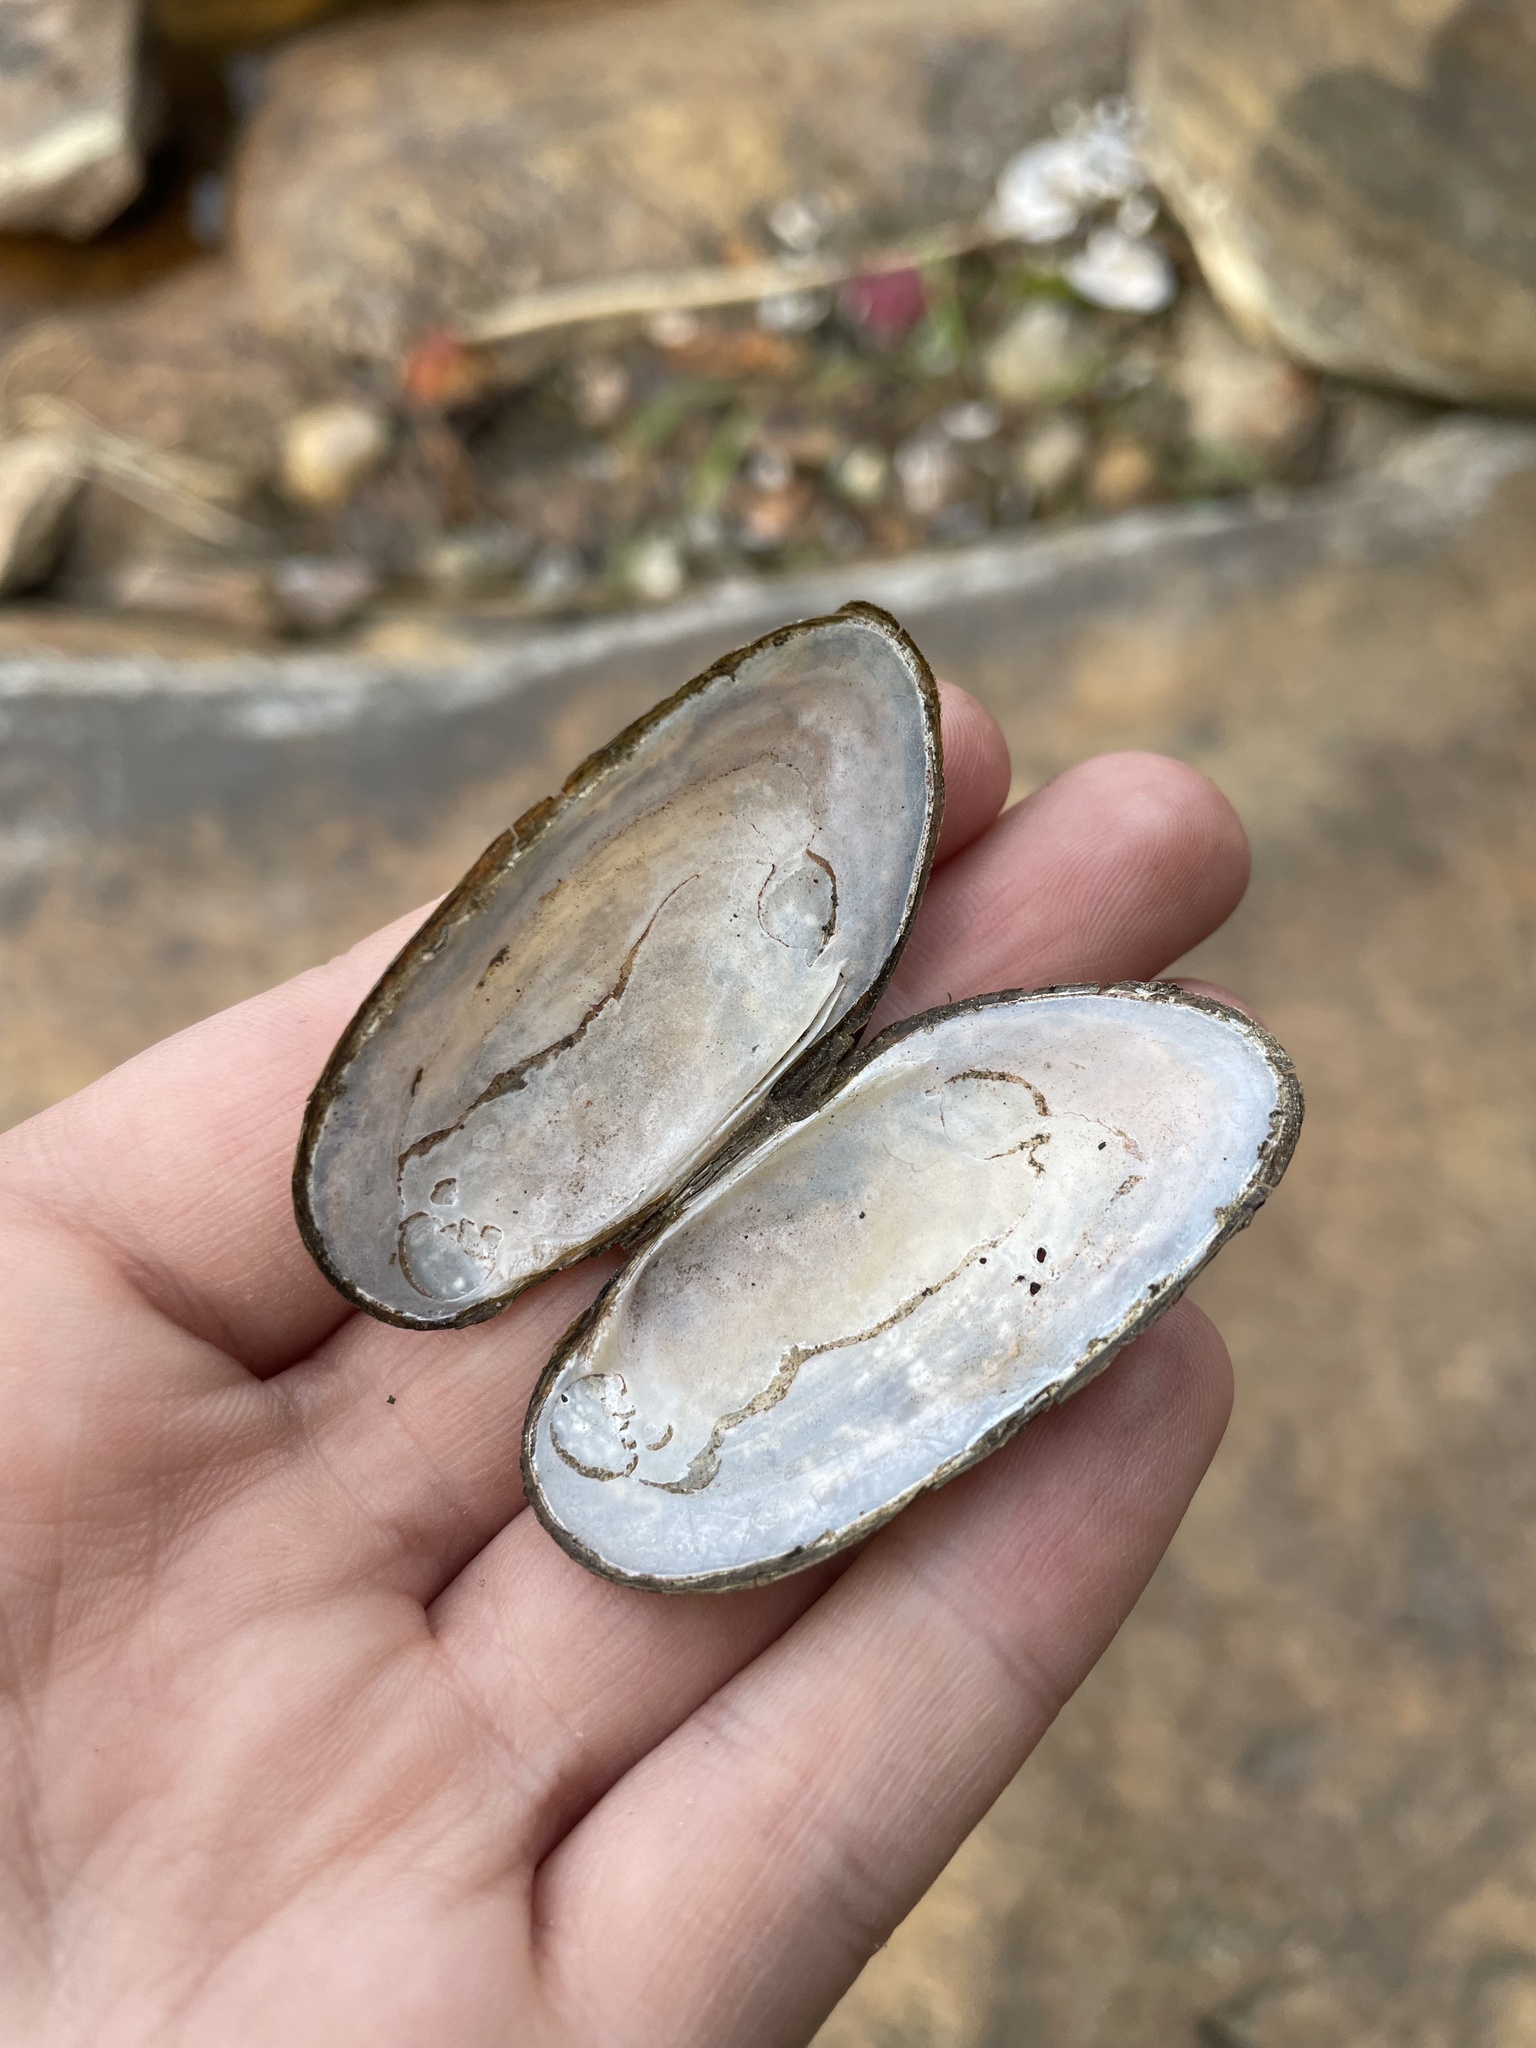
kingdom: Animalia
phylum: Mollusca
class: Bivalvia
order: Unionida
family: Unionidae
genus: Elliptio
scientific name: Elliptio complanata
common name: Eastern elliptio
